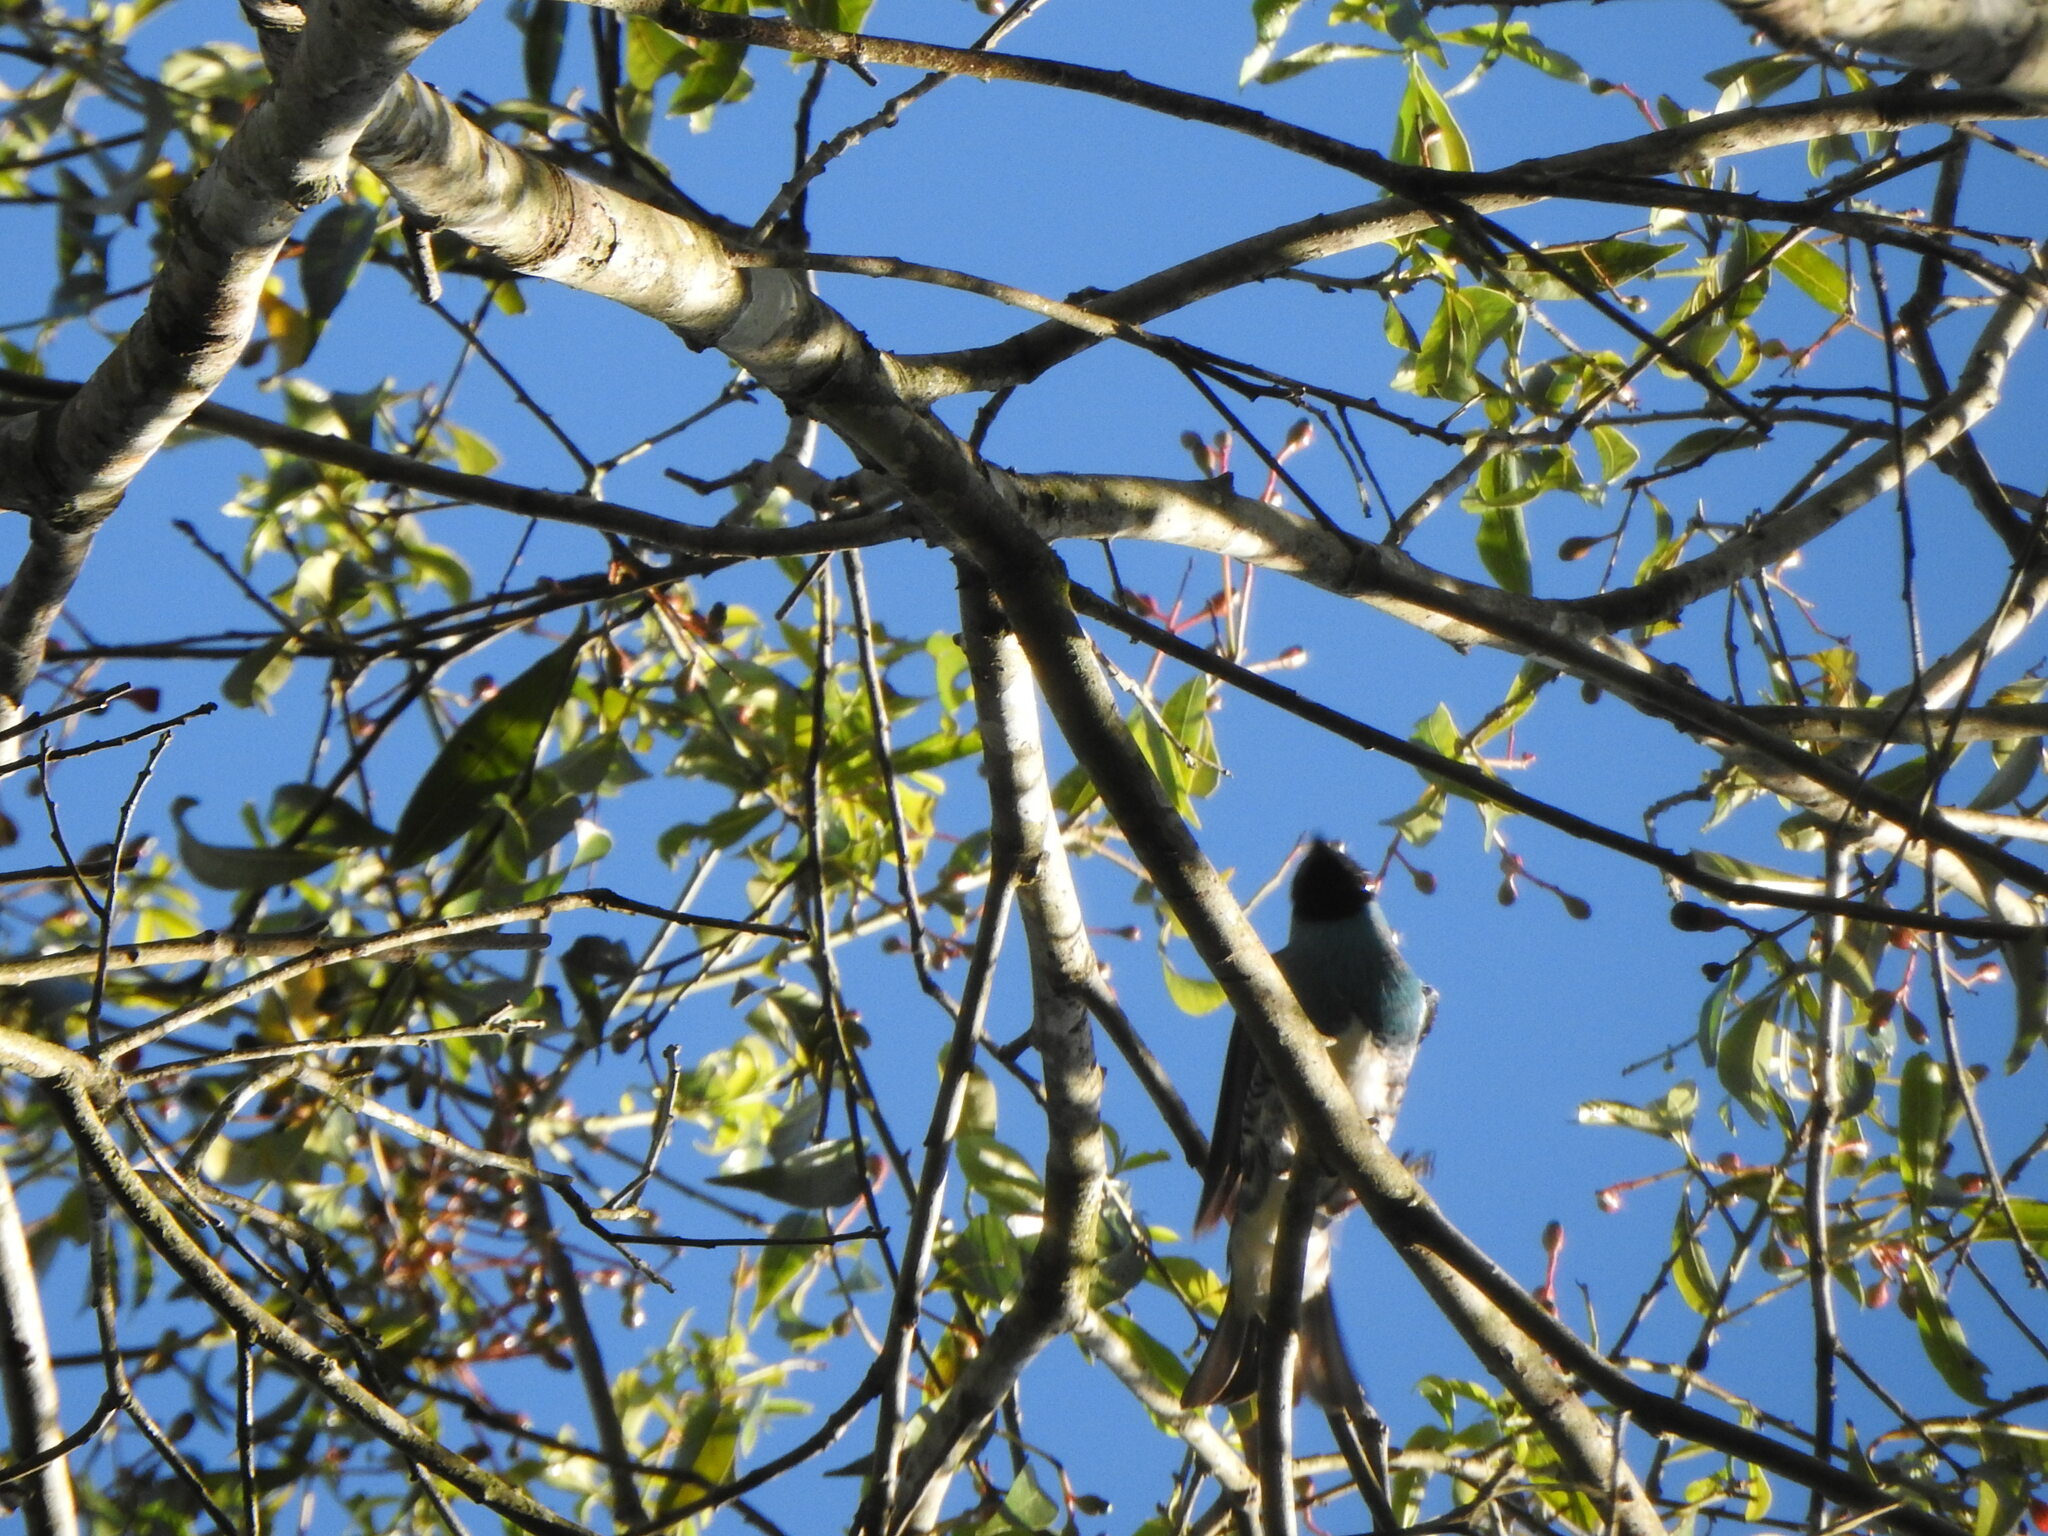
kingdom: Animalia
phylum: Chordata
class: Aves
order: Passeriformes
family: Thraupidae
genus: Tersina
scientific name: Tersina viridis
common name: Swallow tanager
